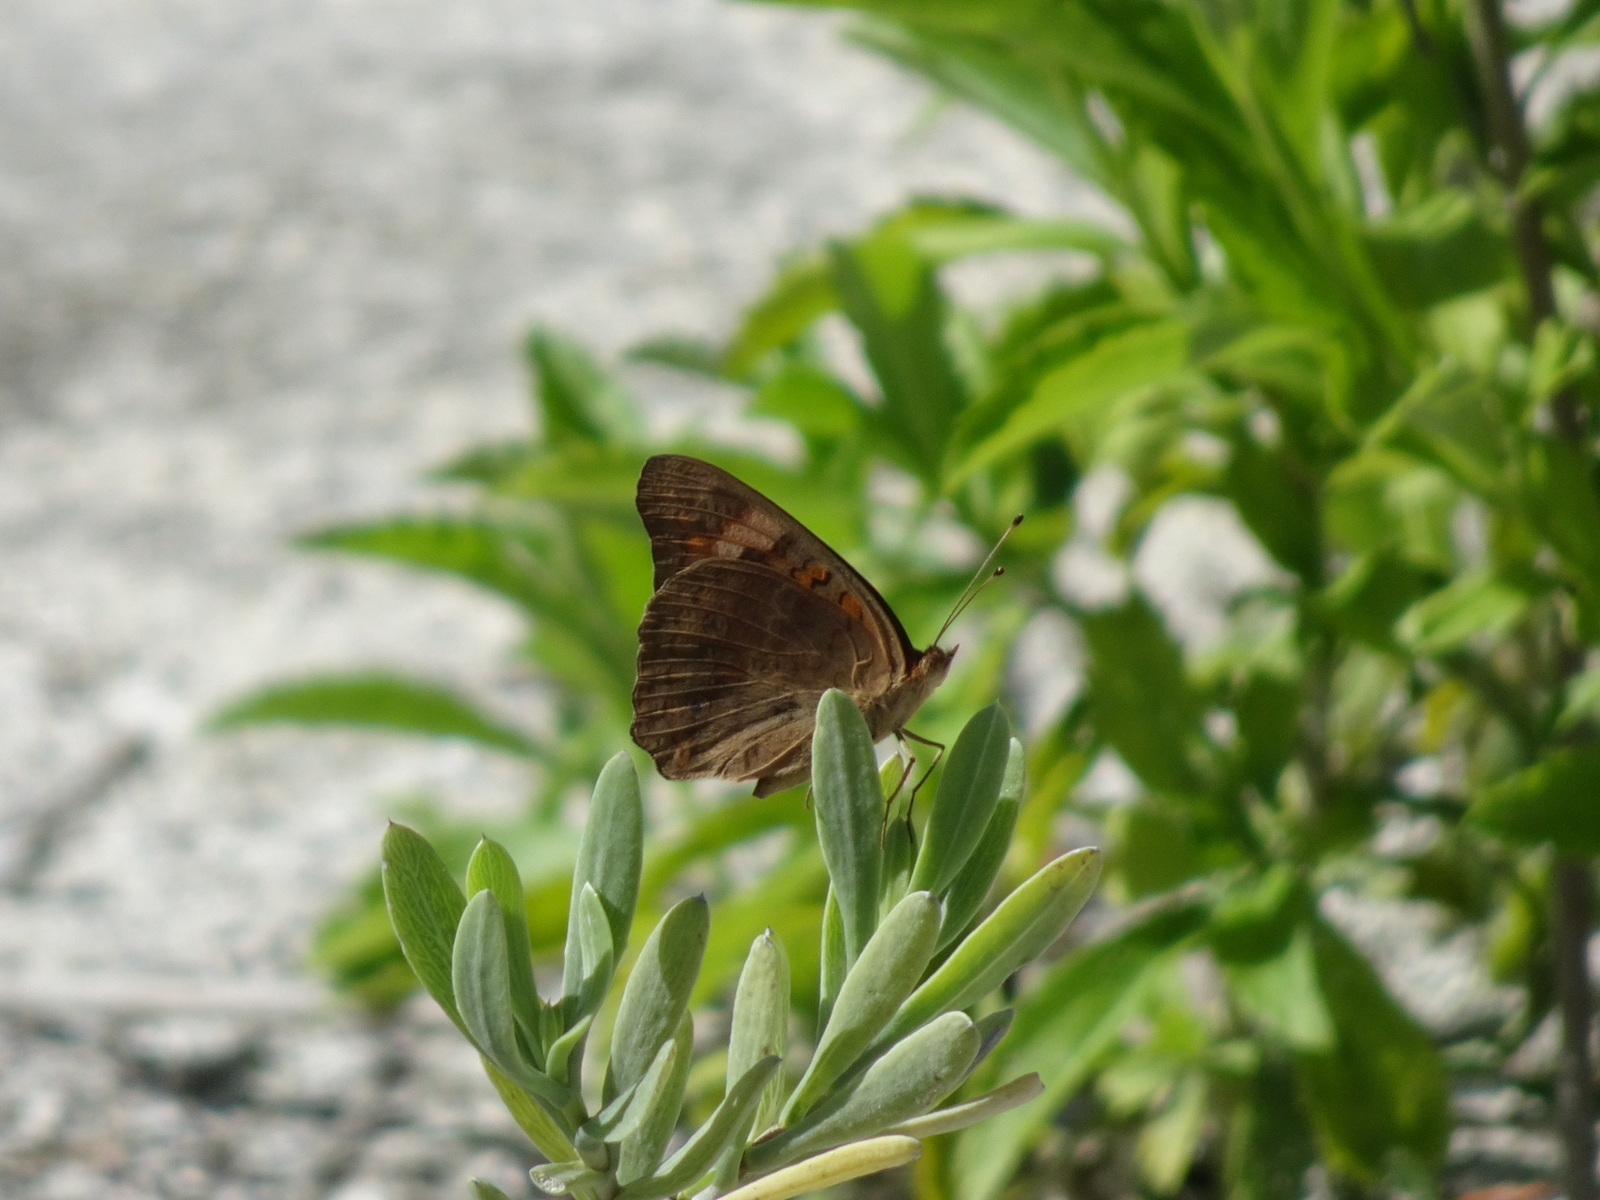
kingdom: Animalia
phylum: Arthropoda
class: Insecta
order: Lepidoptera
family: Nymphalidae
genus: Junonia
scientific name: Junonia neildi
